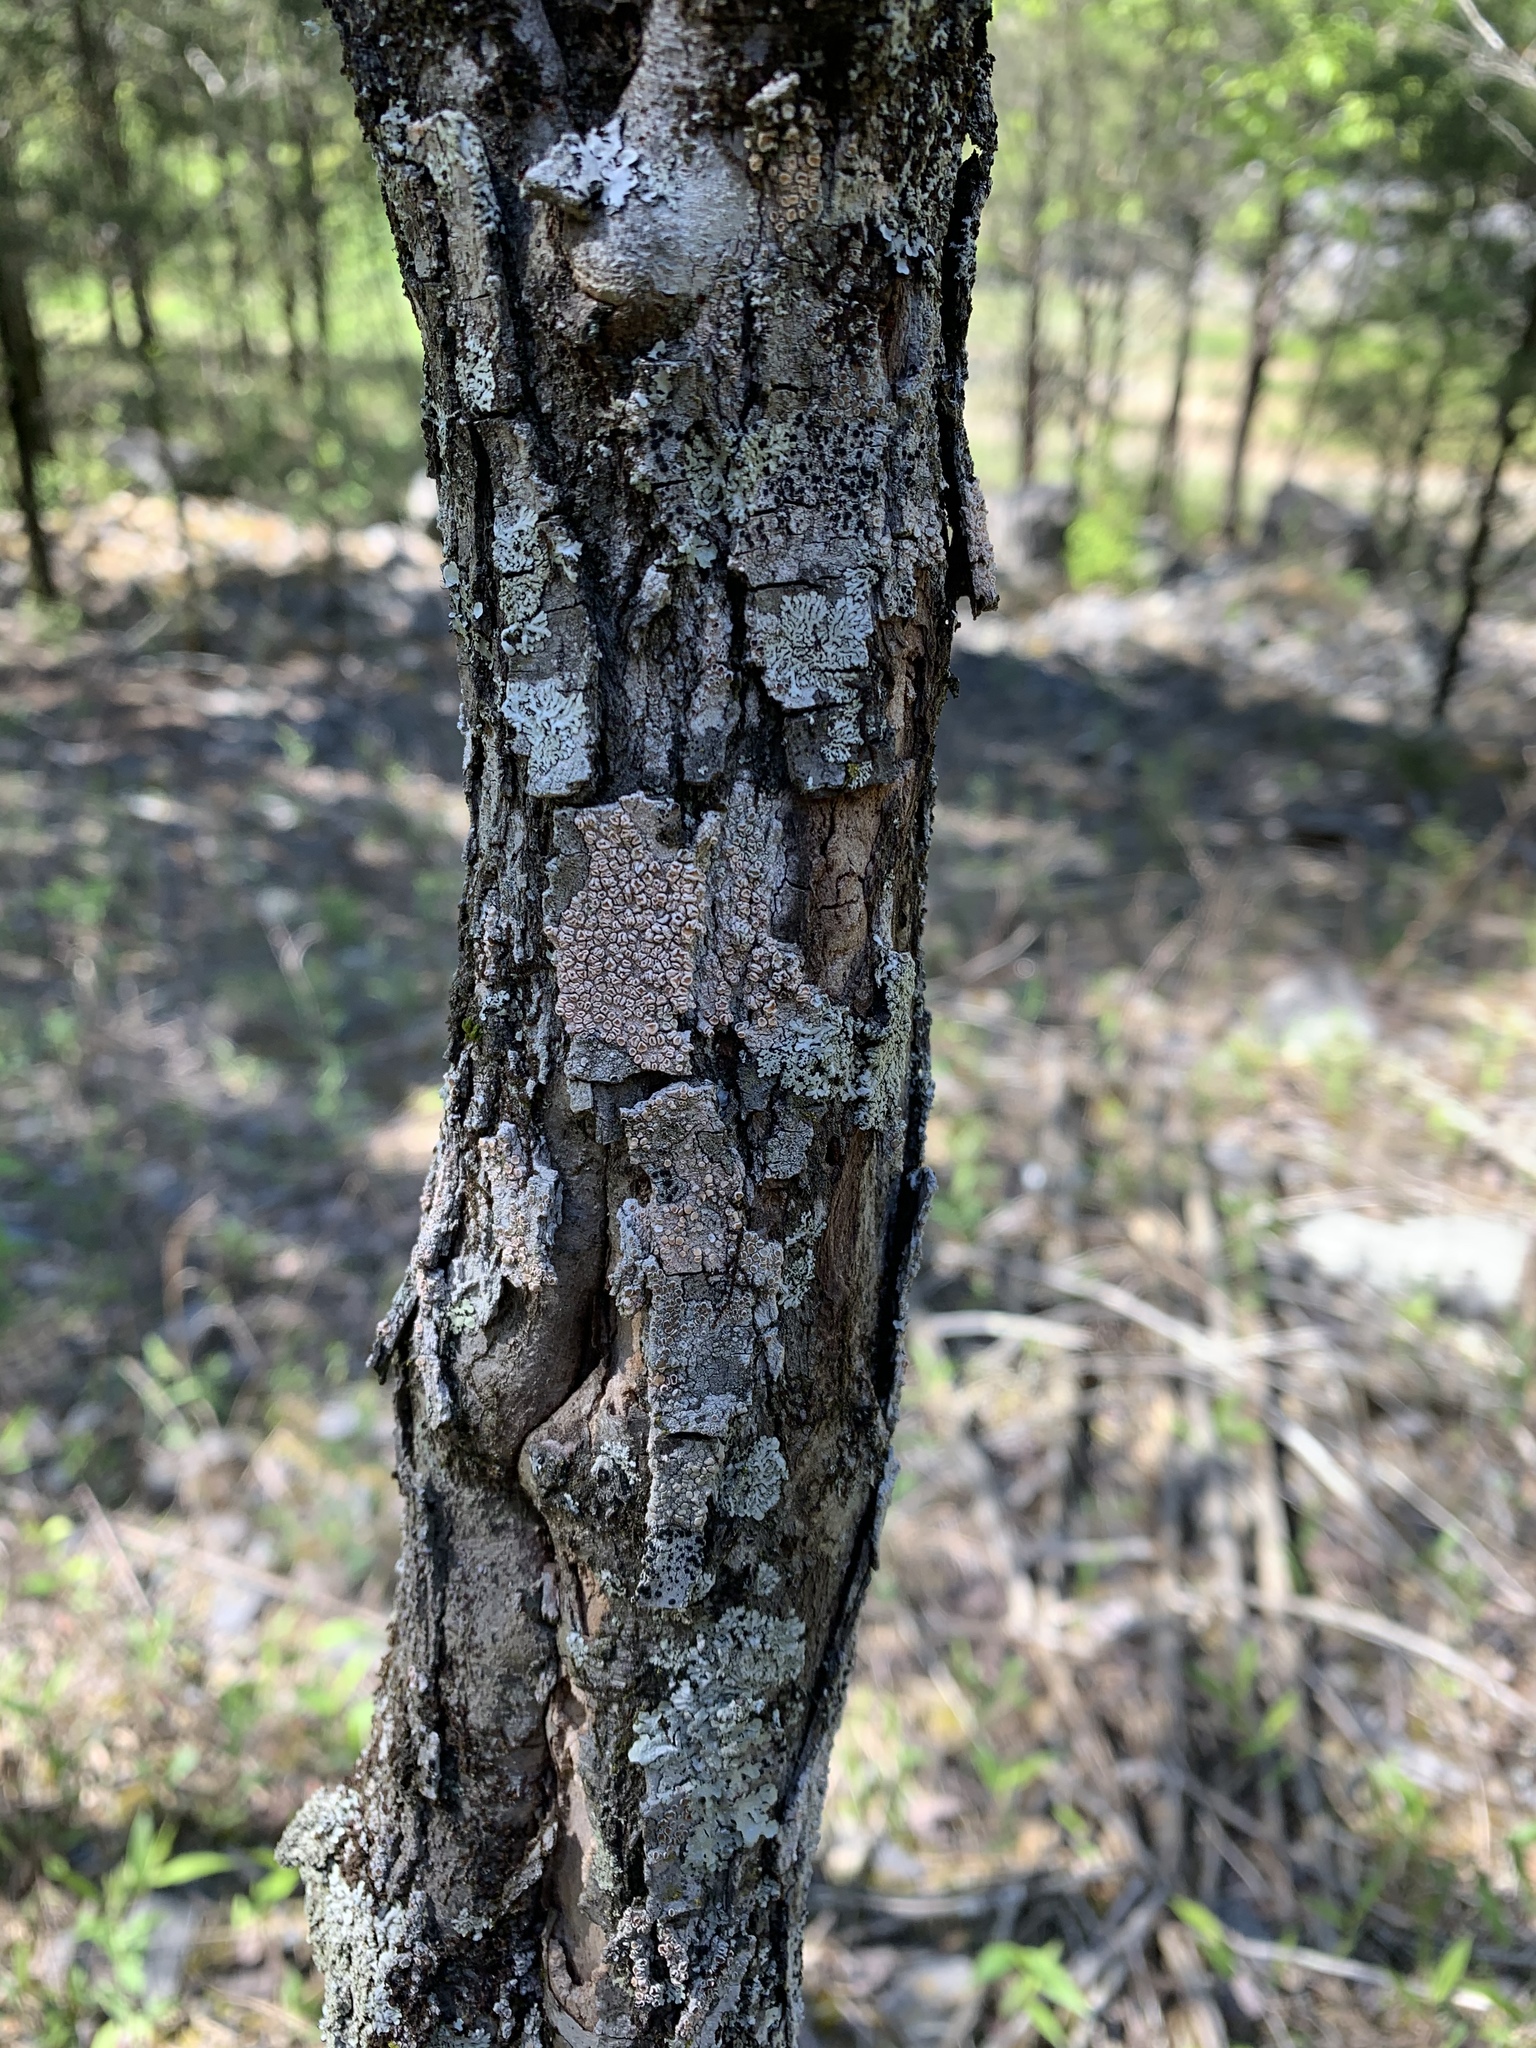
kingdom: Fungi
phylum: Ascomycota
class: Lecanoromycetes
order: Lecanorales
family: Lecanoraceae
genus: Lecanora
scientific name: Lecanora hybocarpa
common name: Bumpy rim-lichen
